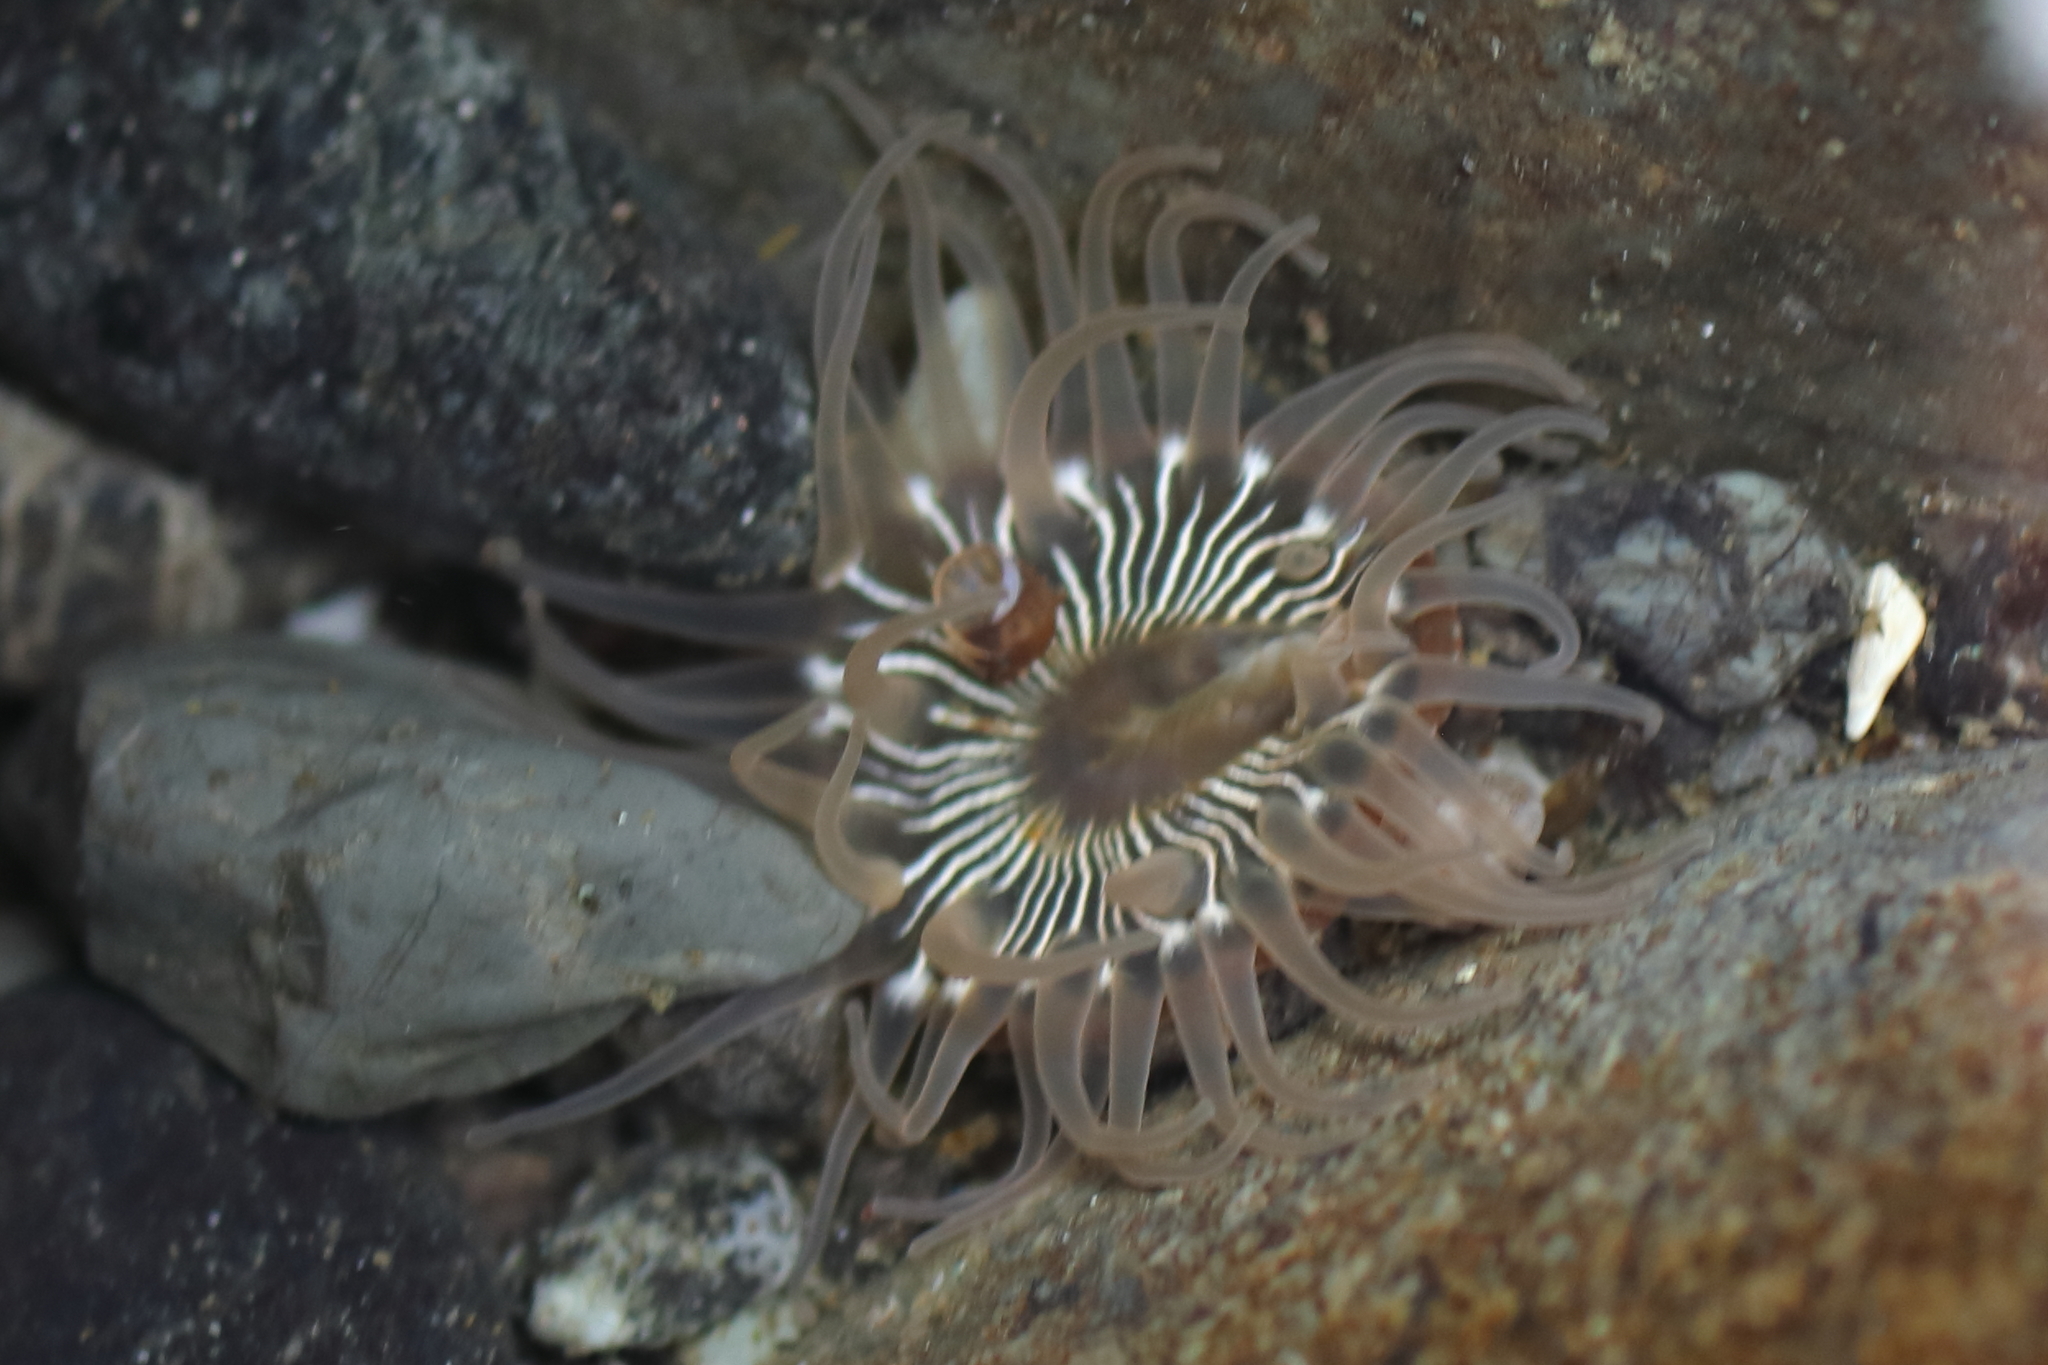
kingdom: Animalia
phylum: Cnidaria
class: Anthozoa
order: Actiniaria
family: Actiniidae
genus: Aulactinia
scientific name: Aulactinia incubans
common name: Incubating anemone
